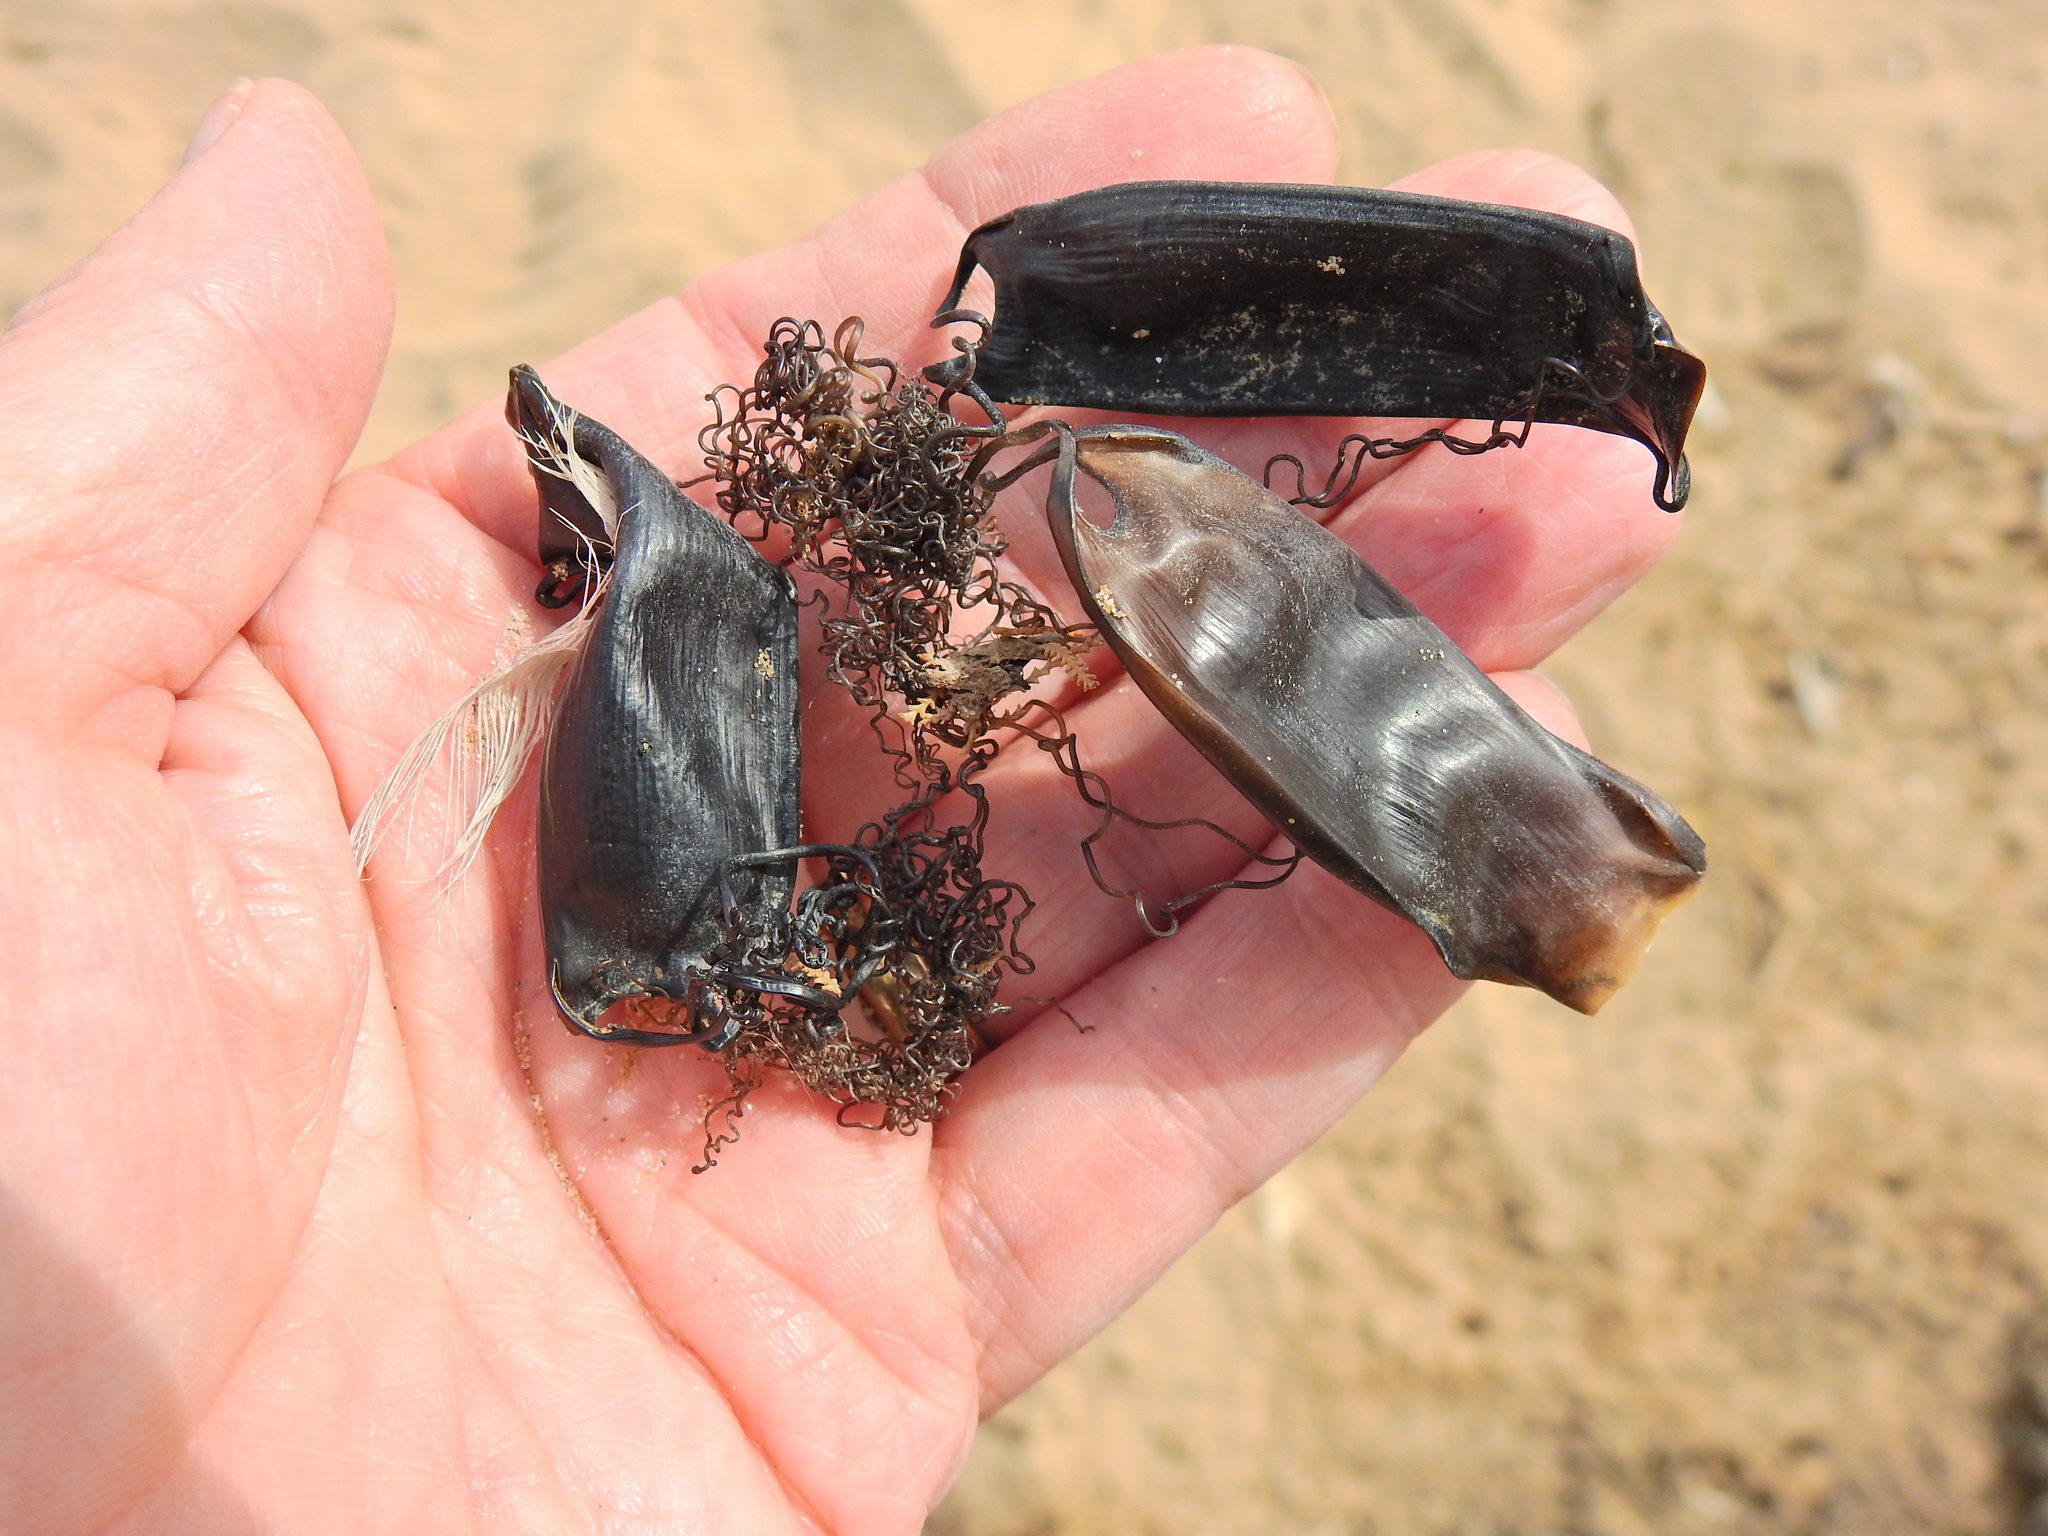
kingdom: Animalia
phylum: Chordata
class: Elasmobranchii
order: Carcharhiniformes
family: Scyliorhinidae
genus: Scyliorhinus
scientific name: Scyliorhinus canicula
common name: Lesser spotted dogfish
